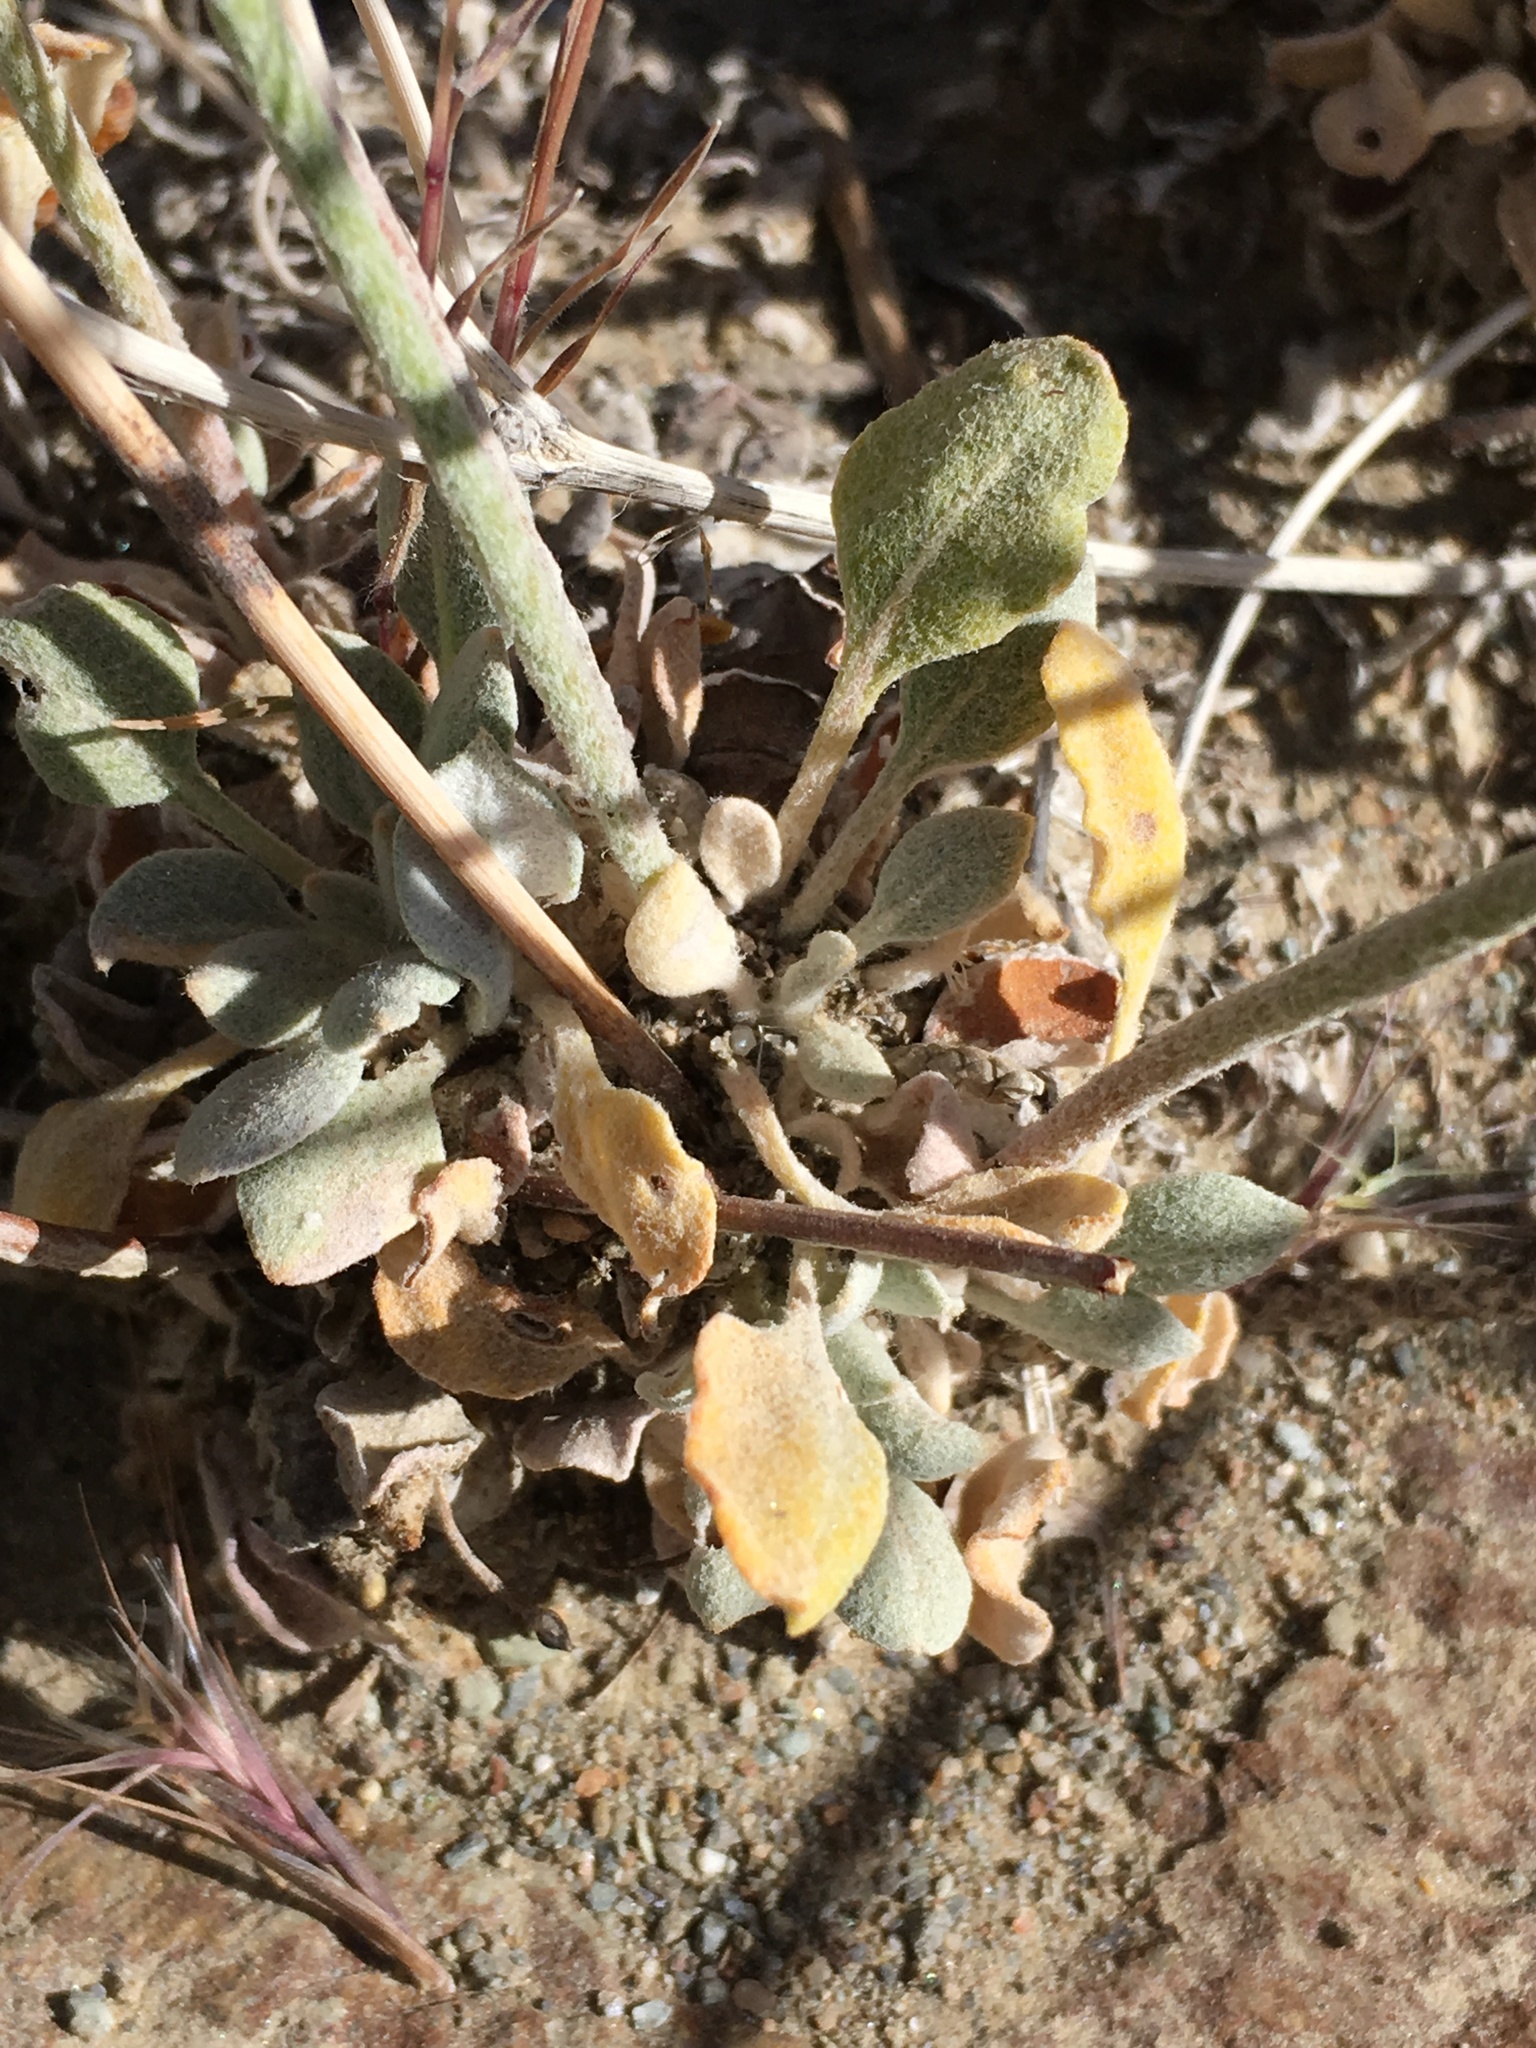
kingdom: Plantae
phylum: Tracheophyta
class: Magnoliopsida
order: Caryophyllales
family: Polygonaceae
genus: Eriogonum
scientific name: Eriogonum mensicola
